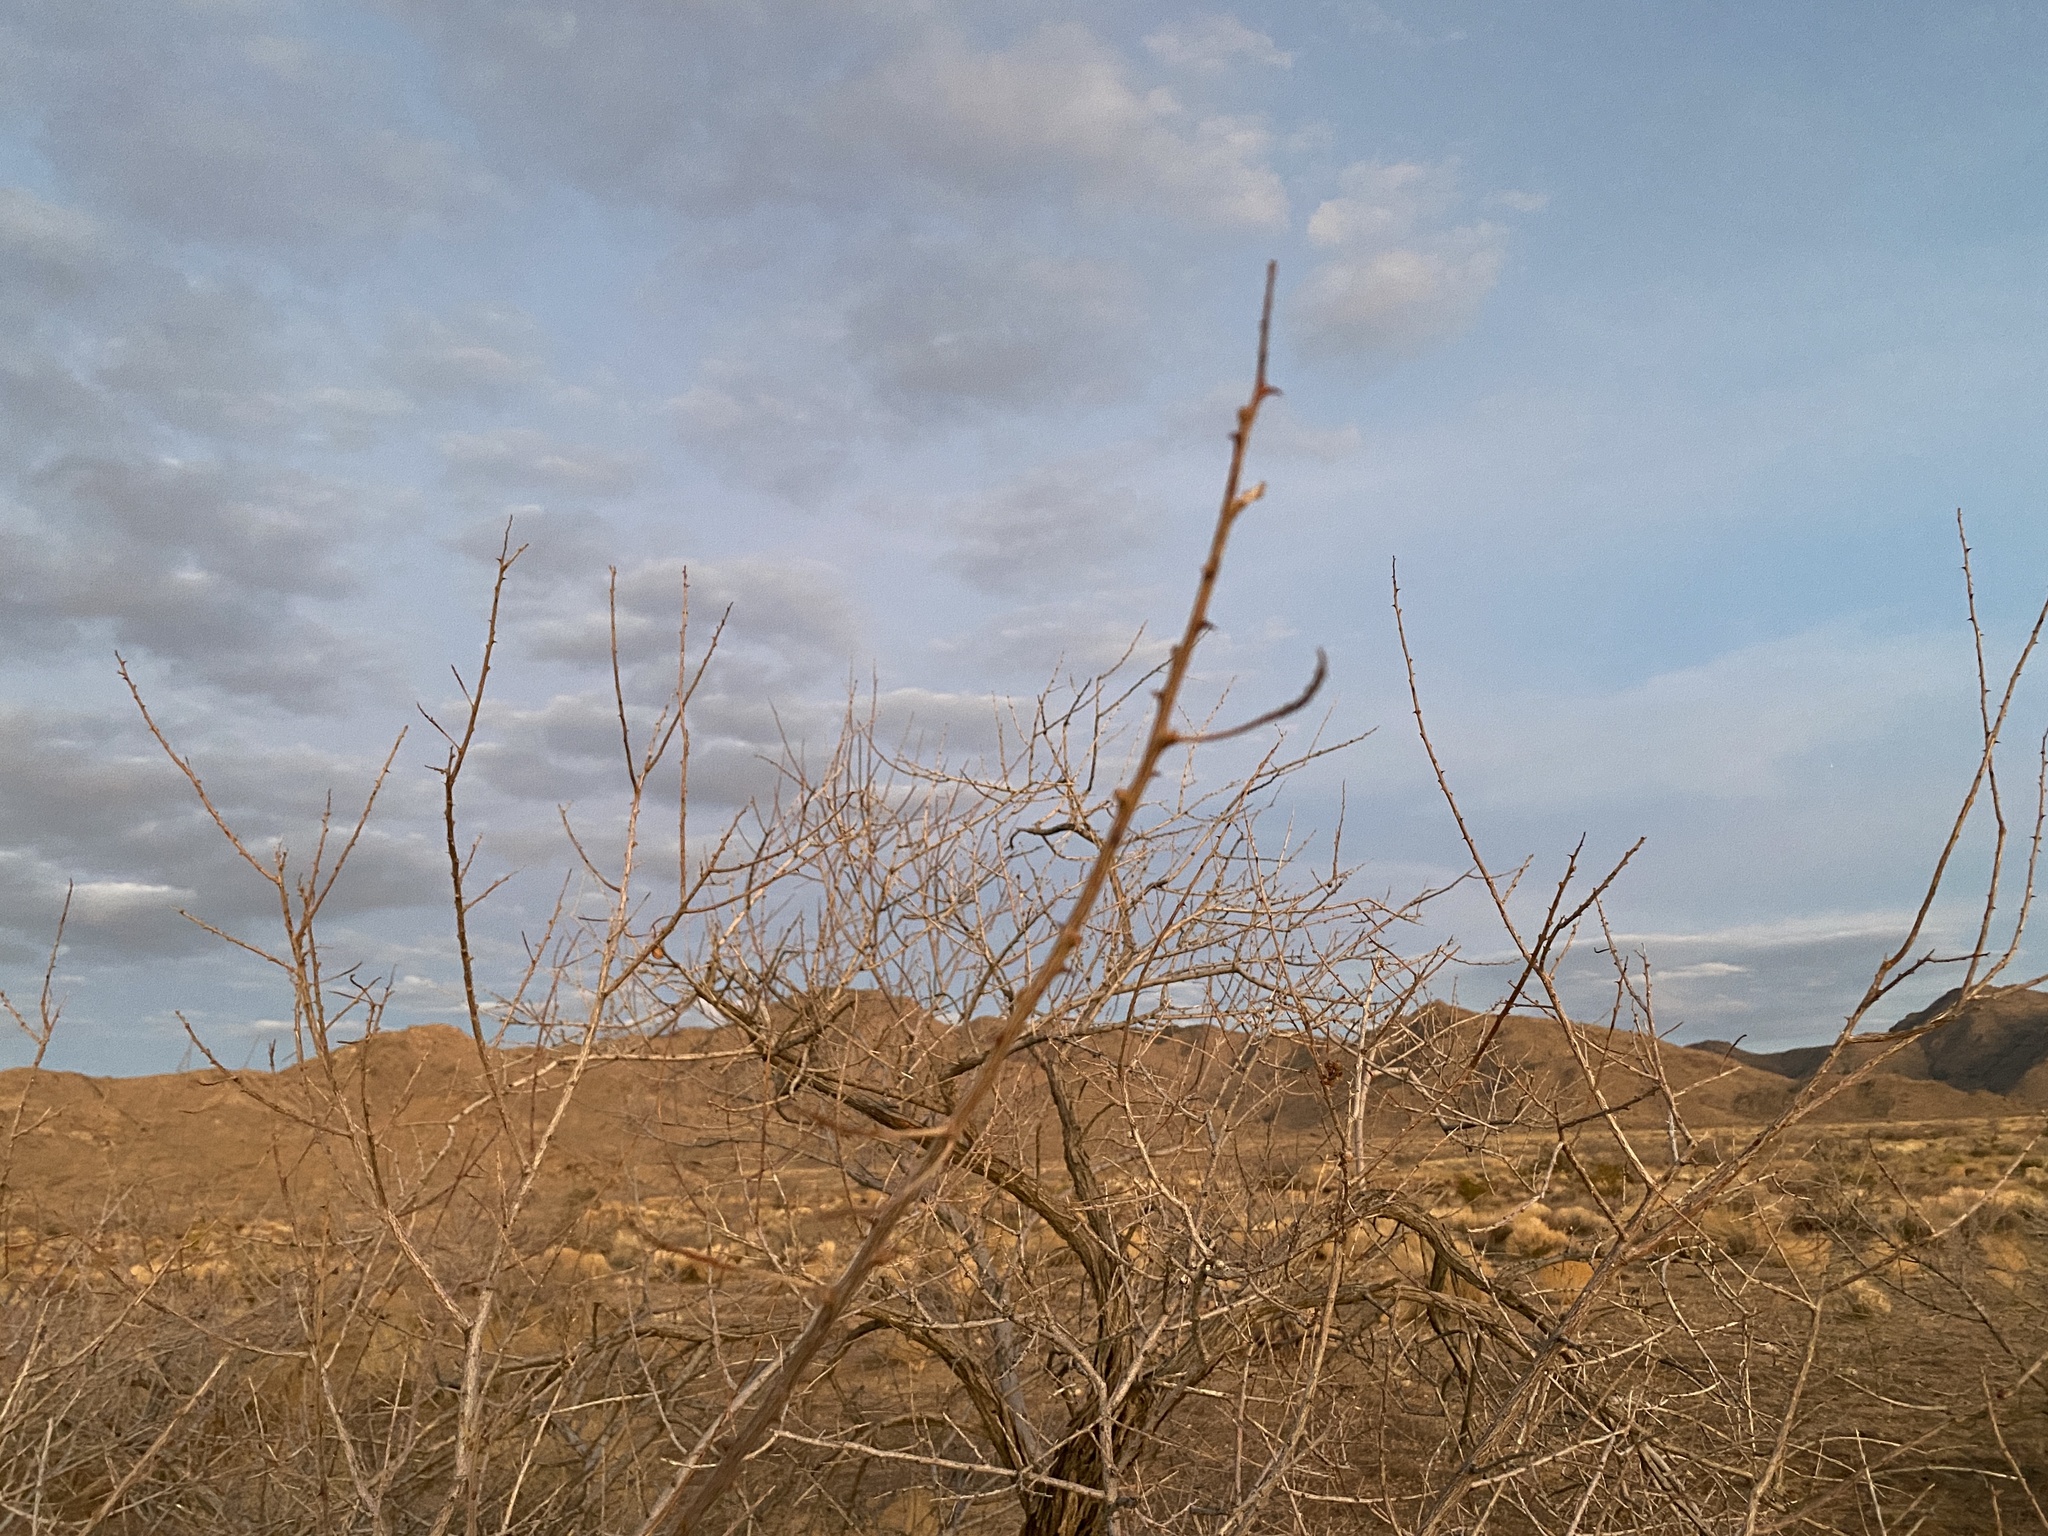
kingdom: Plantae
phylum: Tracheophyta
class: Magnoliopsida
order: Fabales
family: Fabaceae
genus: Senegalia
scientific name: Senegalia greggii
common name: Texas-mimosa
